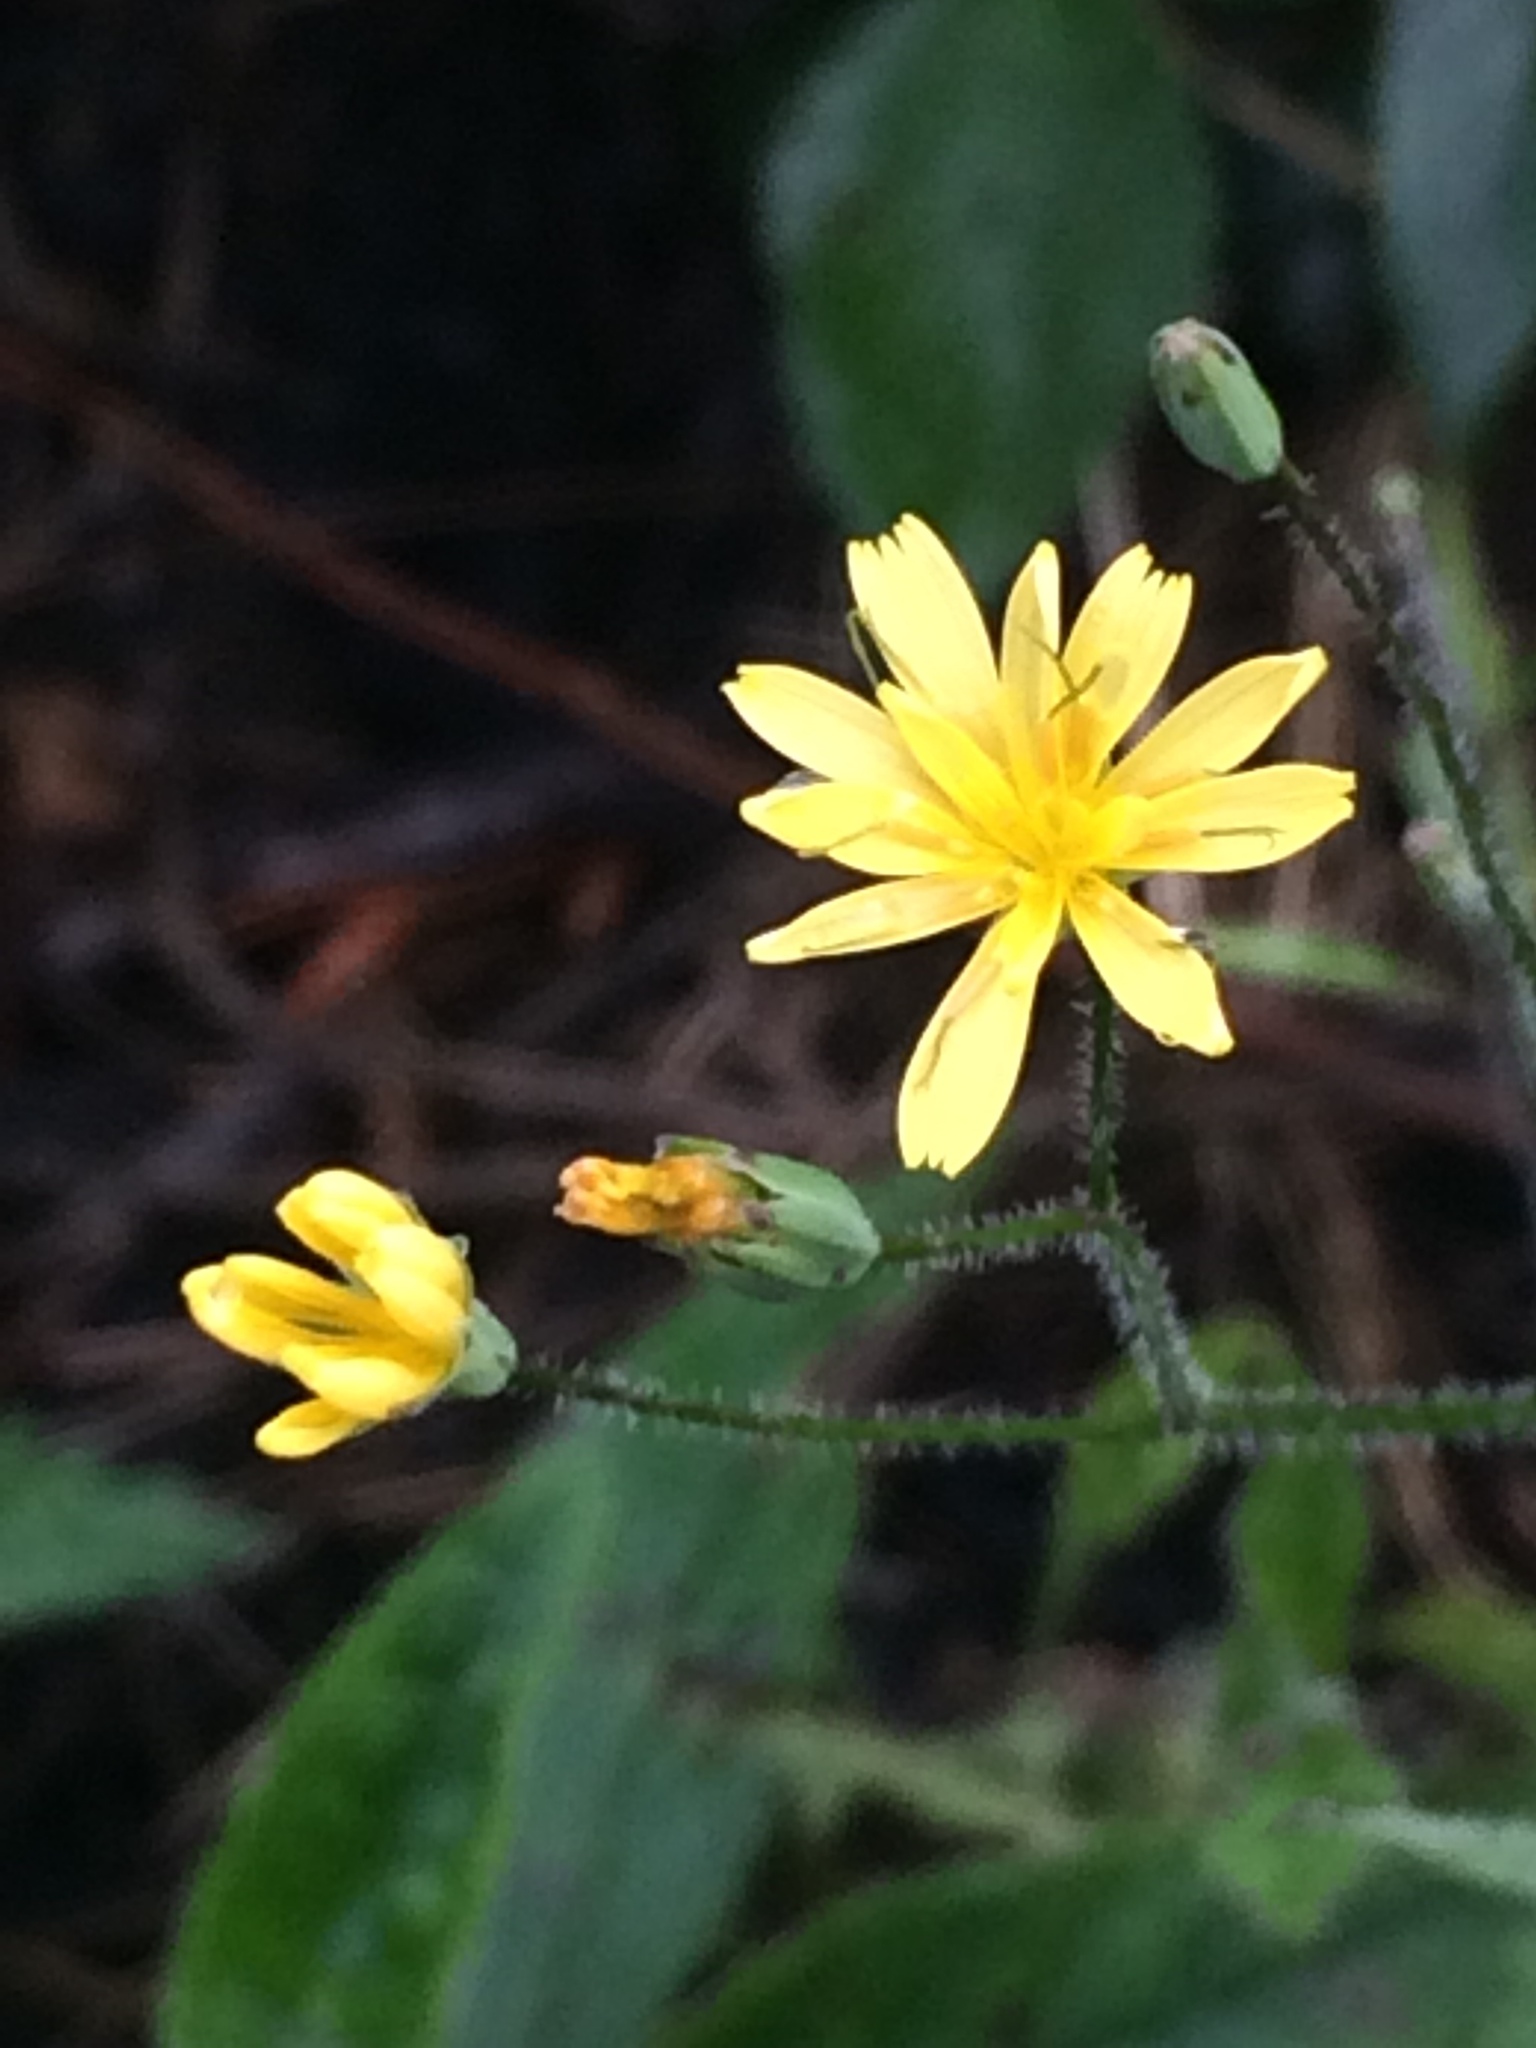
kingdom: Plantae
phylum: Tracheophyta
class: Magnoliopsida
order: Asterales
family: Asteraceae
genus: Lapsana
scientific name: Lapsana communis
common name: Nipplewort
